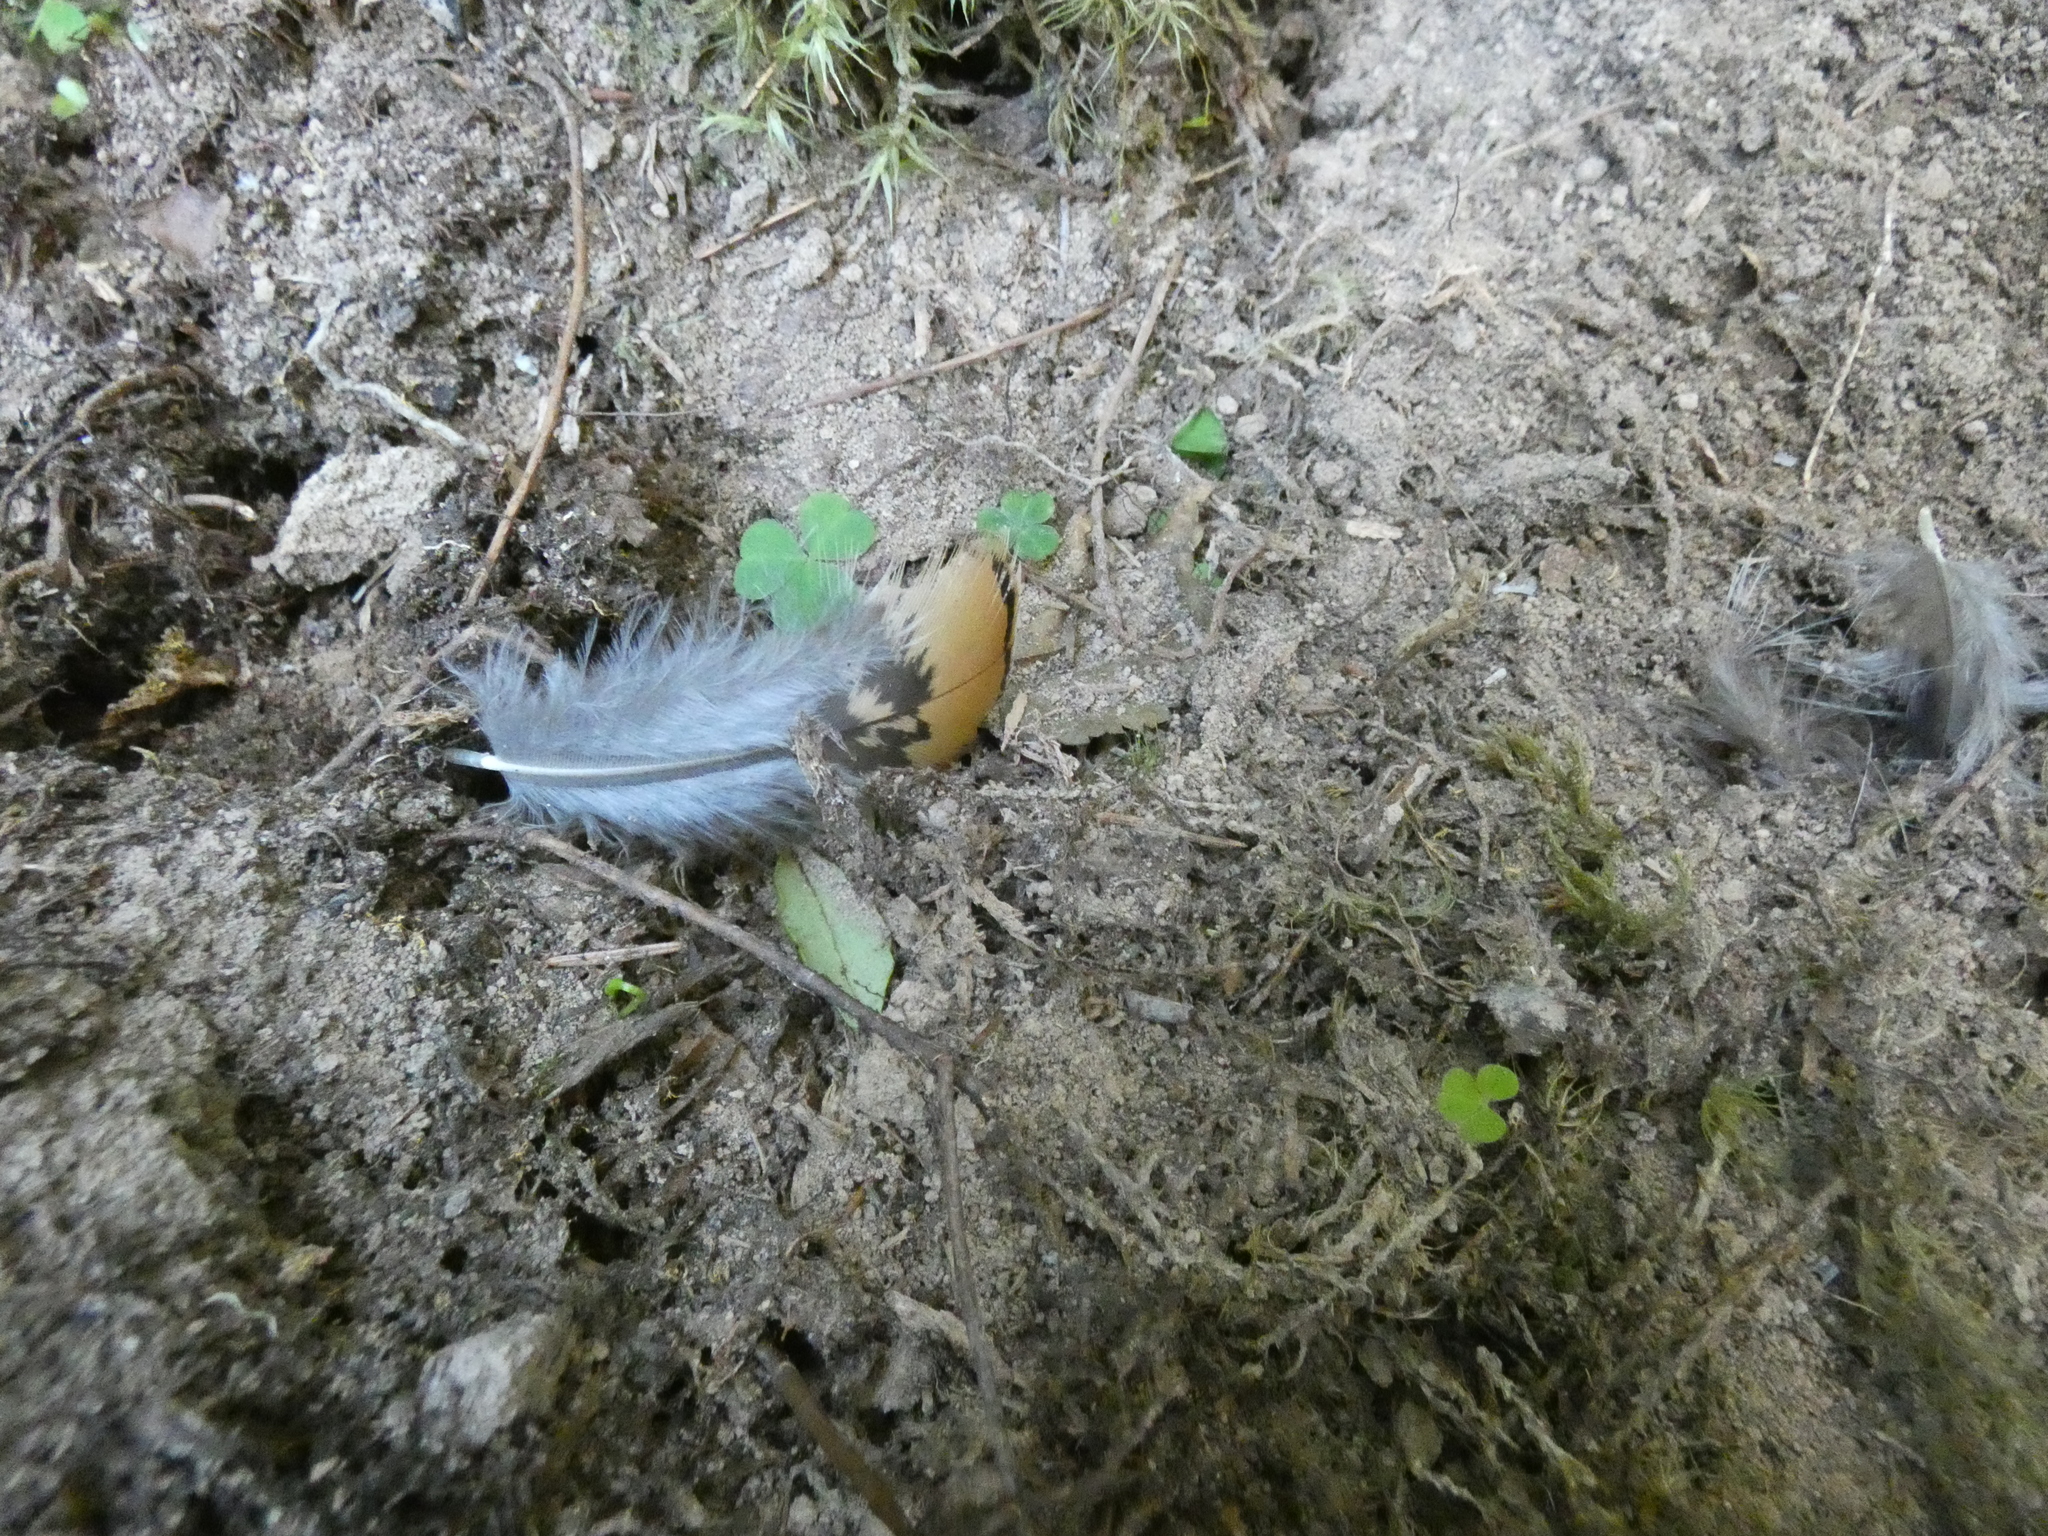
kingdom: Animalia
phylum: Chordata
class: Aves
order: Galliformes
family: Phasianidae
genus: Tetrao
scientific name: Tetrao urogallus
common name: Western capercaillie
